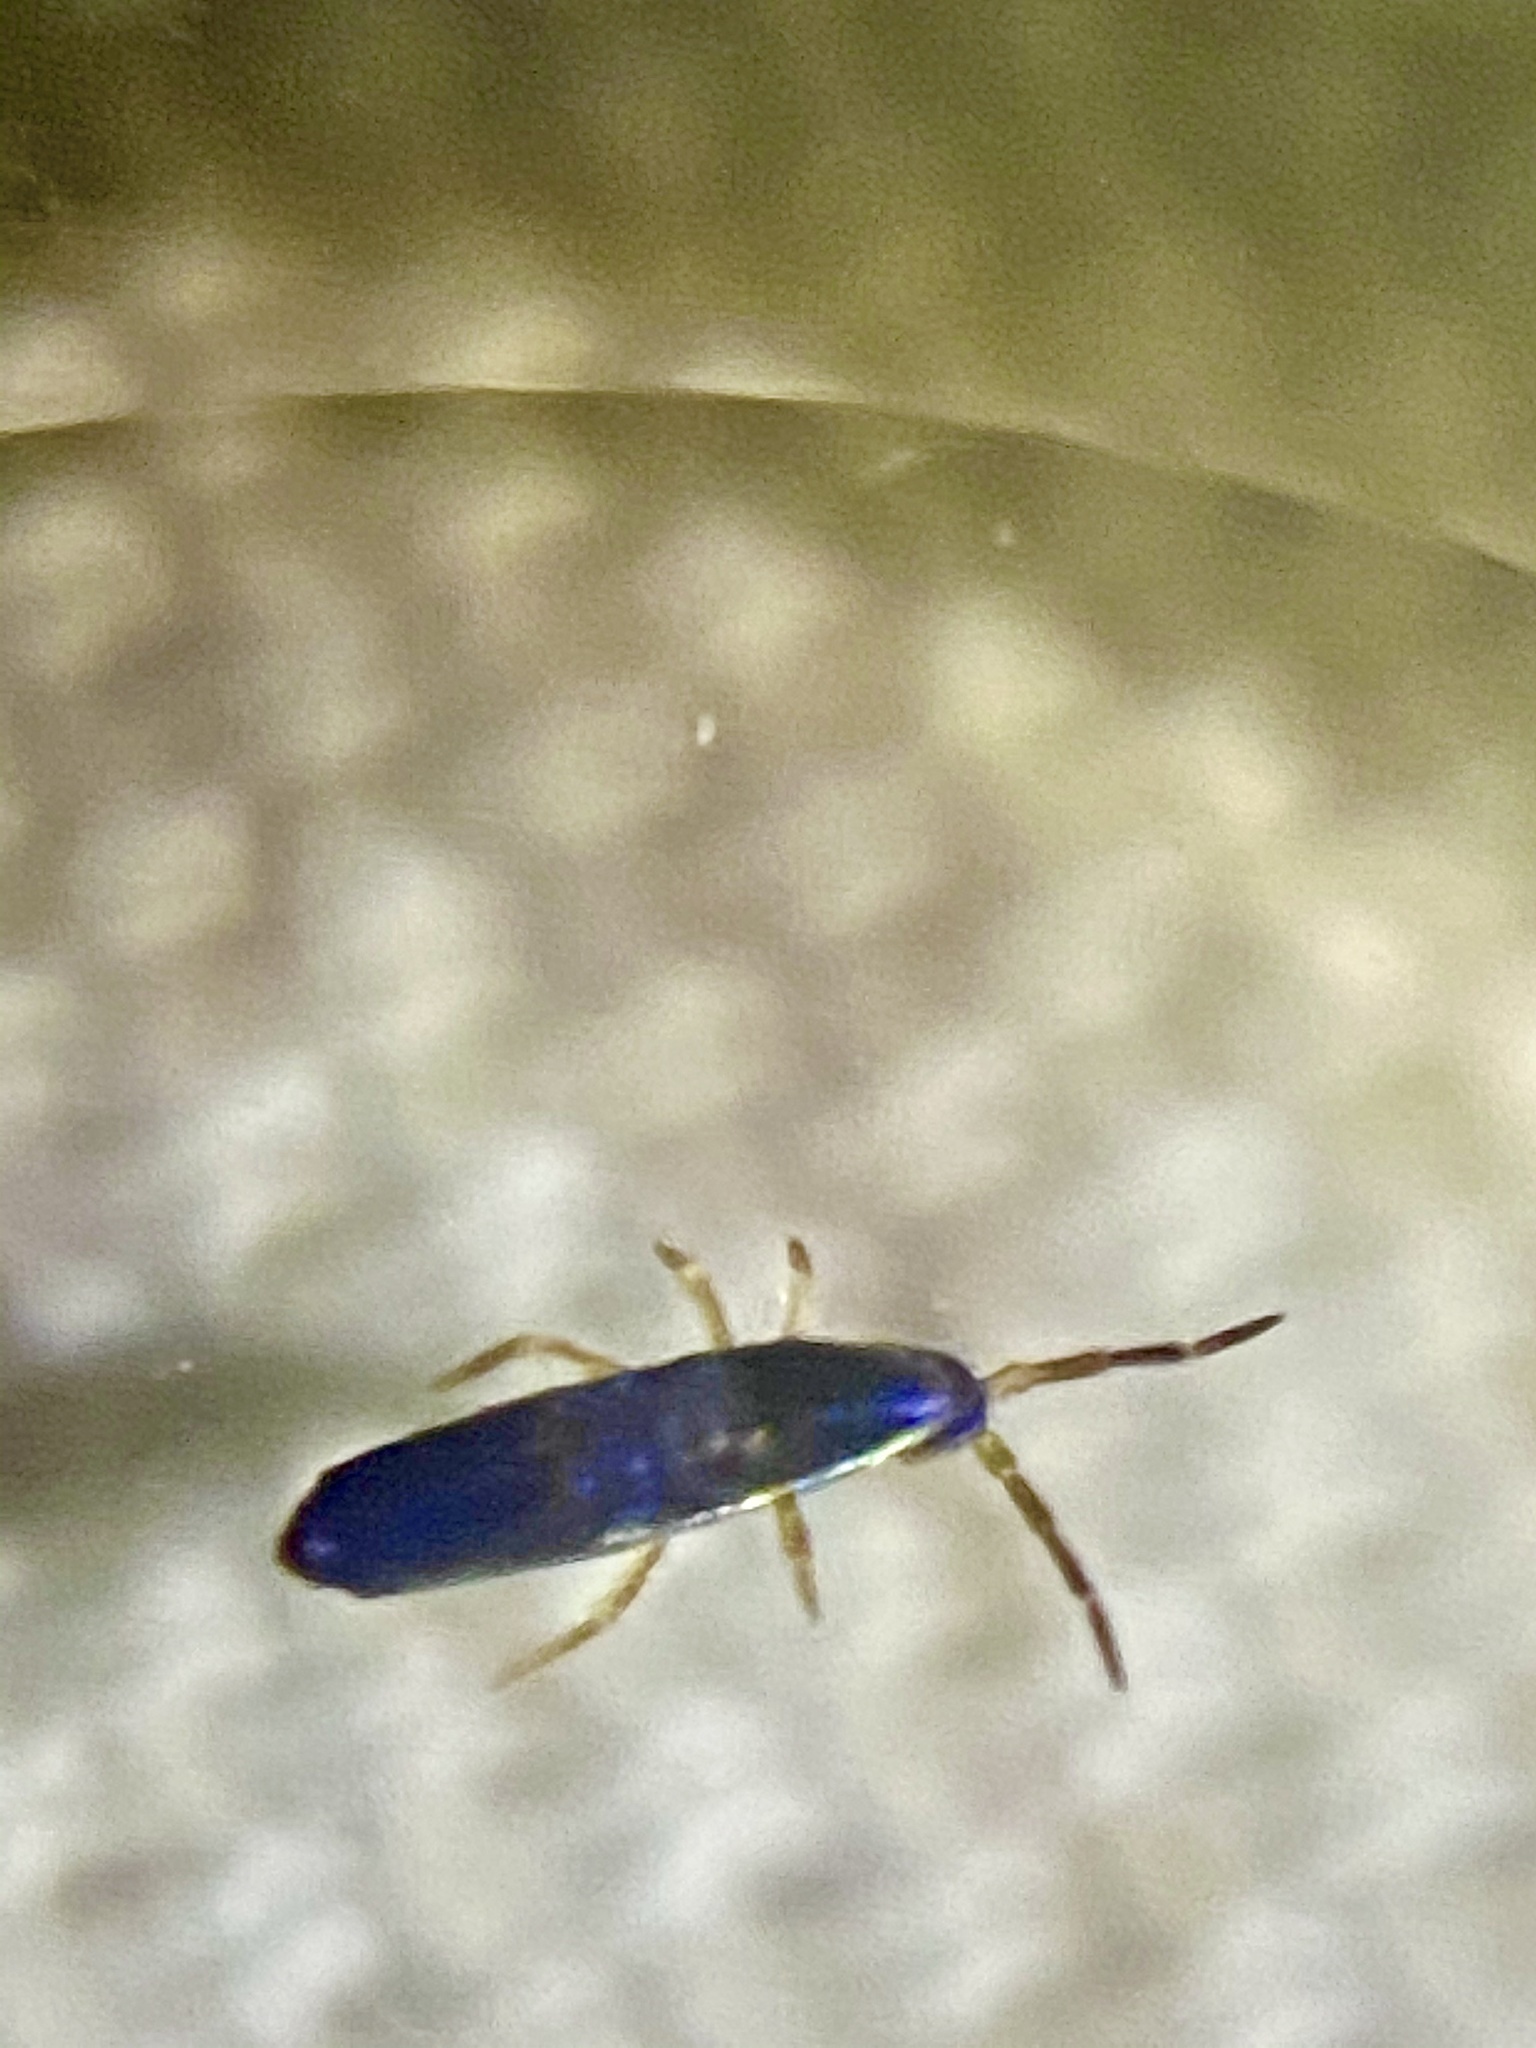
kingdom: Animalia
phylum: Arthropoda
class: Collembola
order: Entomobryomorpha
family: Entomobryidae
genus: Lepidocyrtus
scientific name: Lepidocyrtus paradoxus
